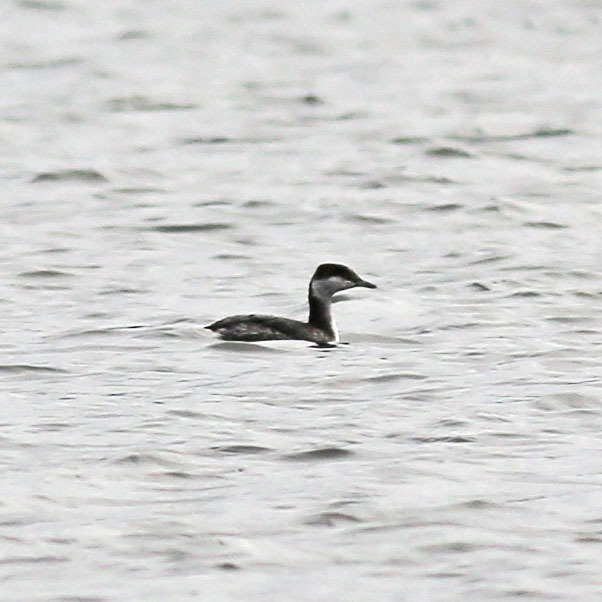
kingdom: Animalia
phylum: Chordata
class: Aves
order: Podicipediformes
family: Podicipedidae
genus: Podiceps
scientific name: Podiceps auritus
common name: Horned grebe
